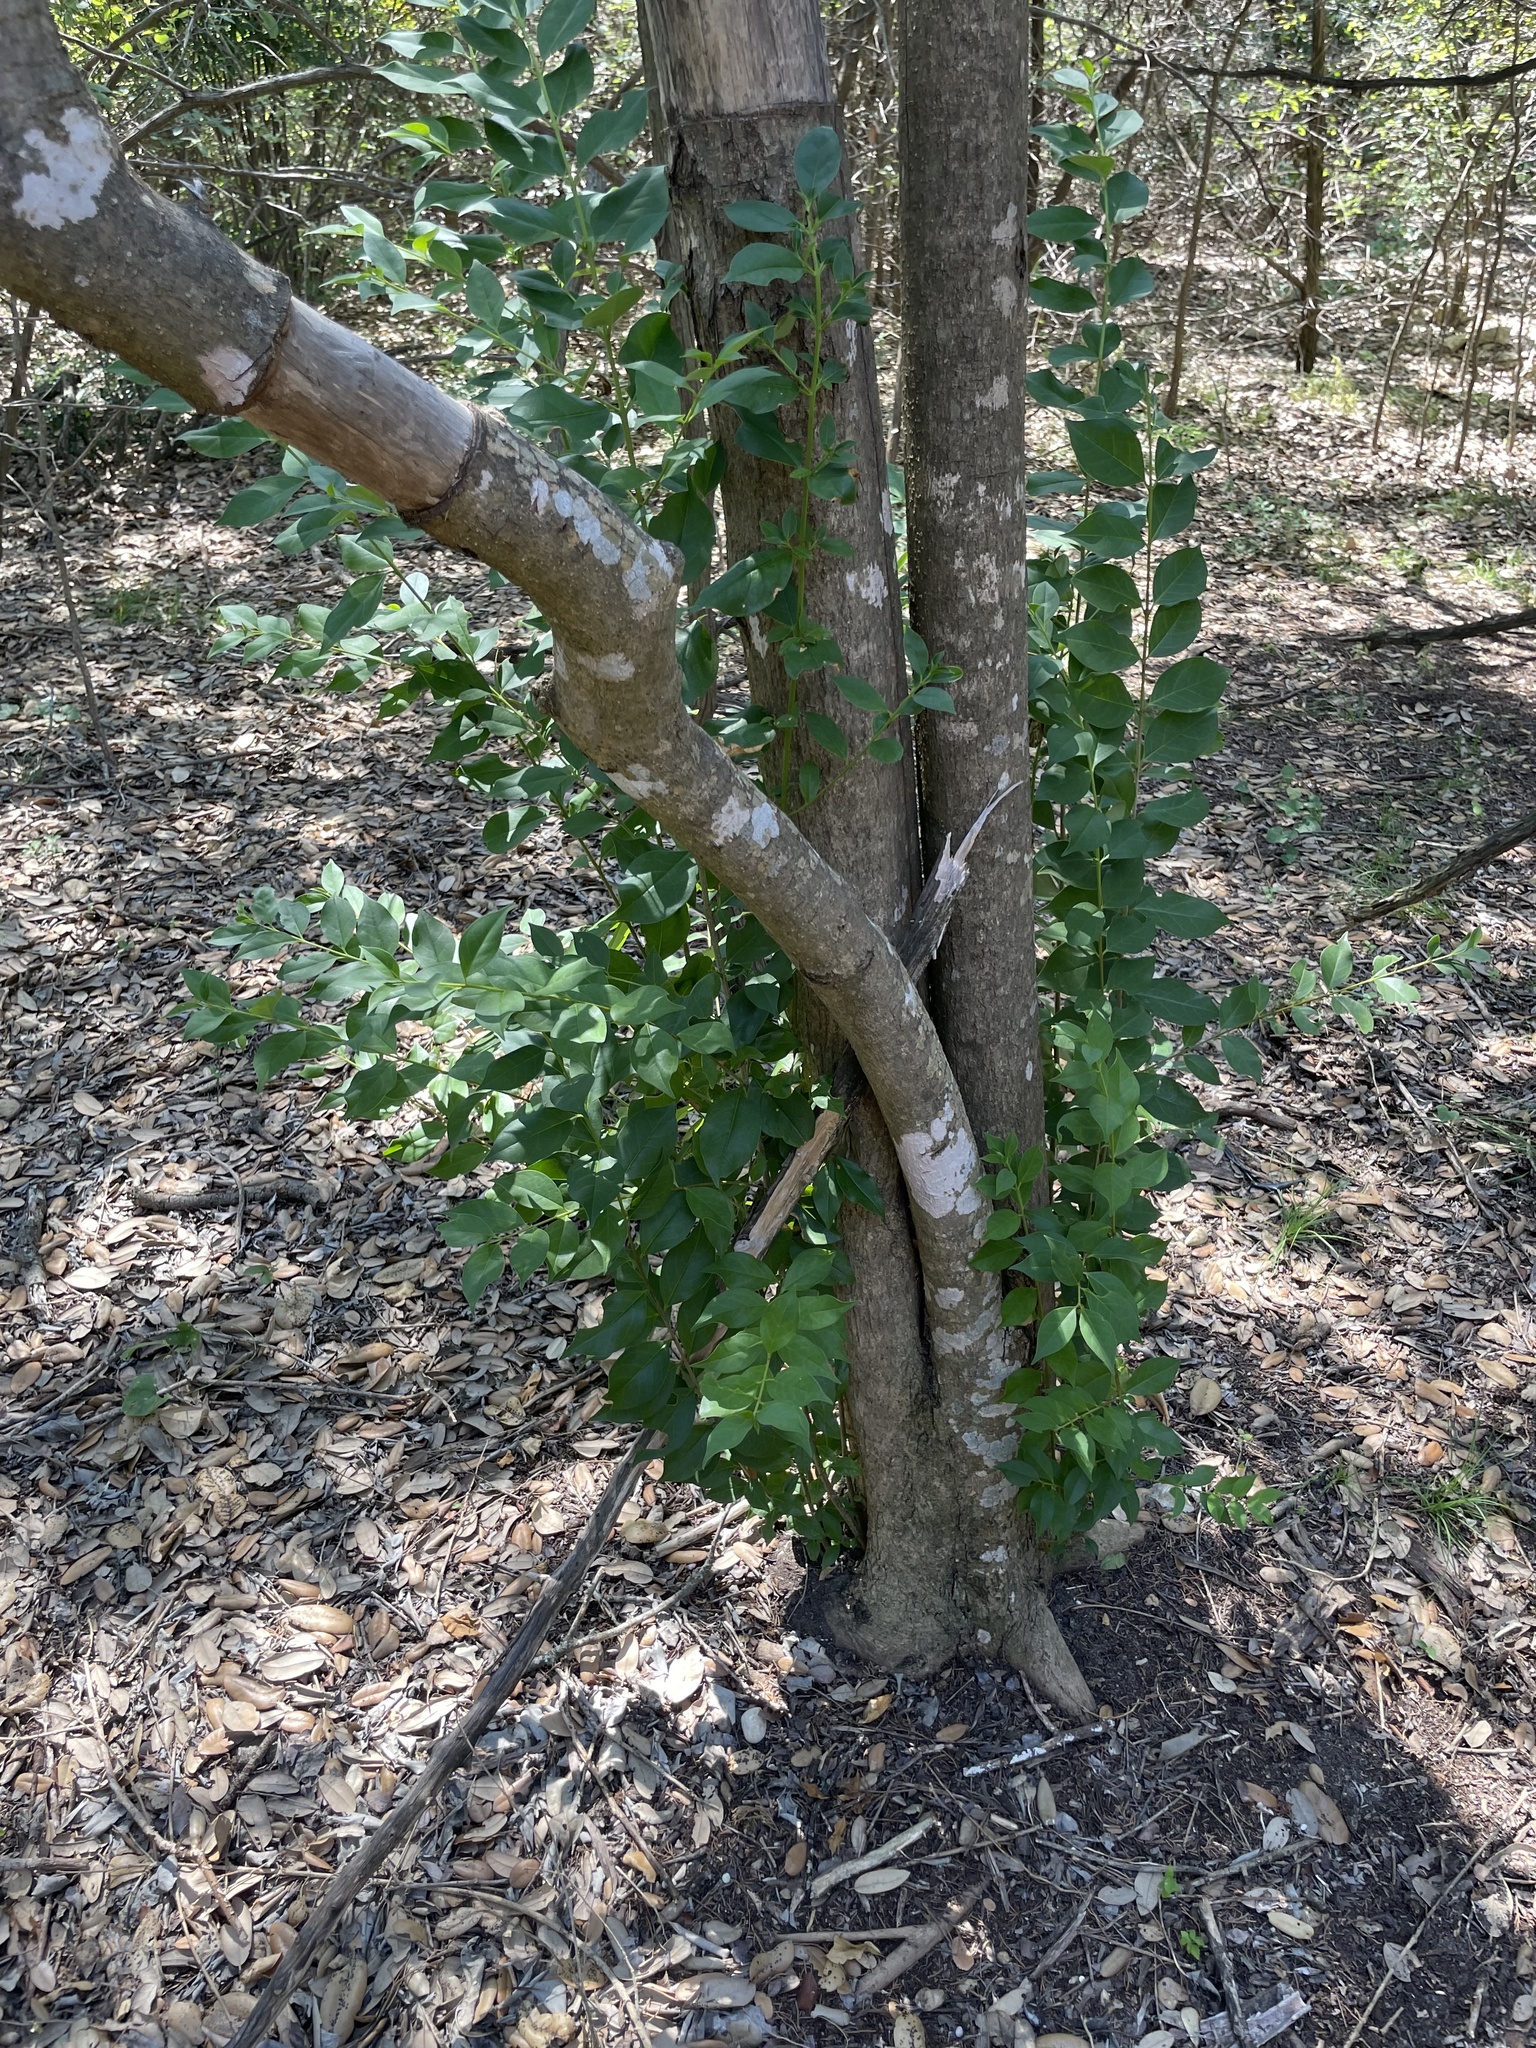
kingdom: Plantae
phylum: Tracheophyta
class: Magnoliopsida
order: Lamiales
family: Oleaceae
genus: Ligustrum
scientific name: Ligustrum lucidum
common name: Glossy privet
